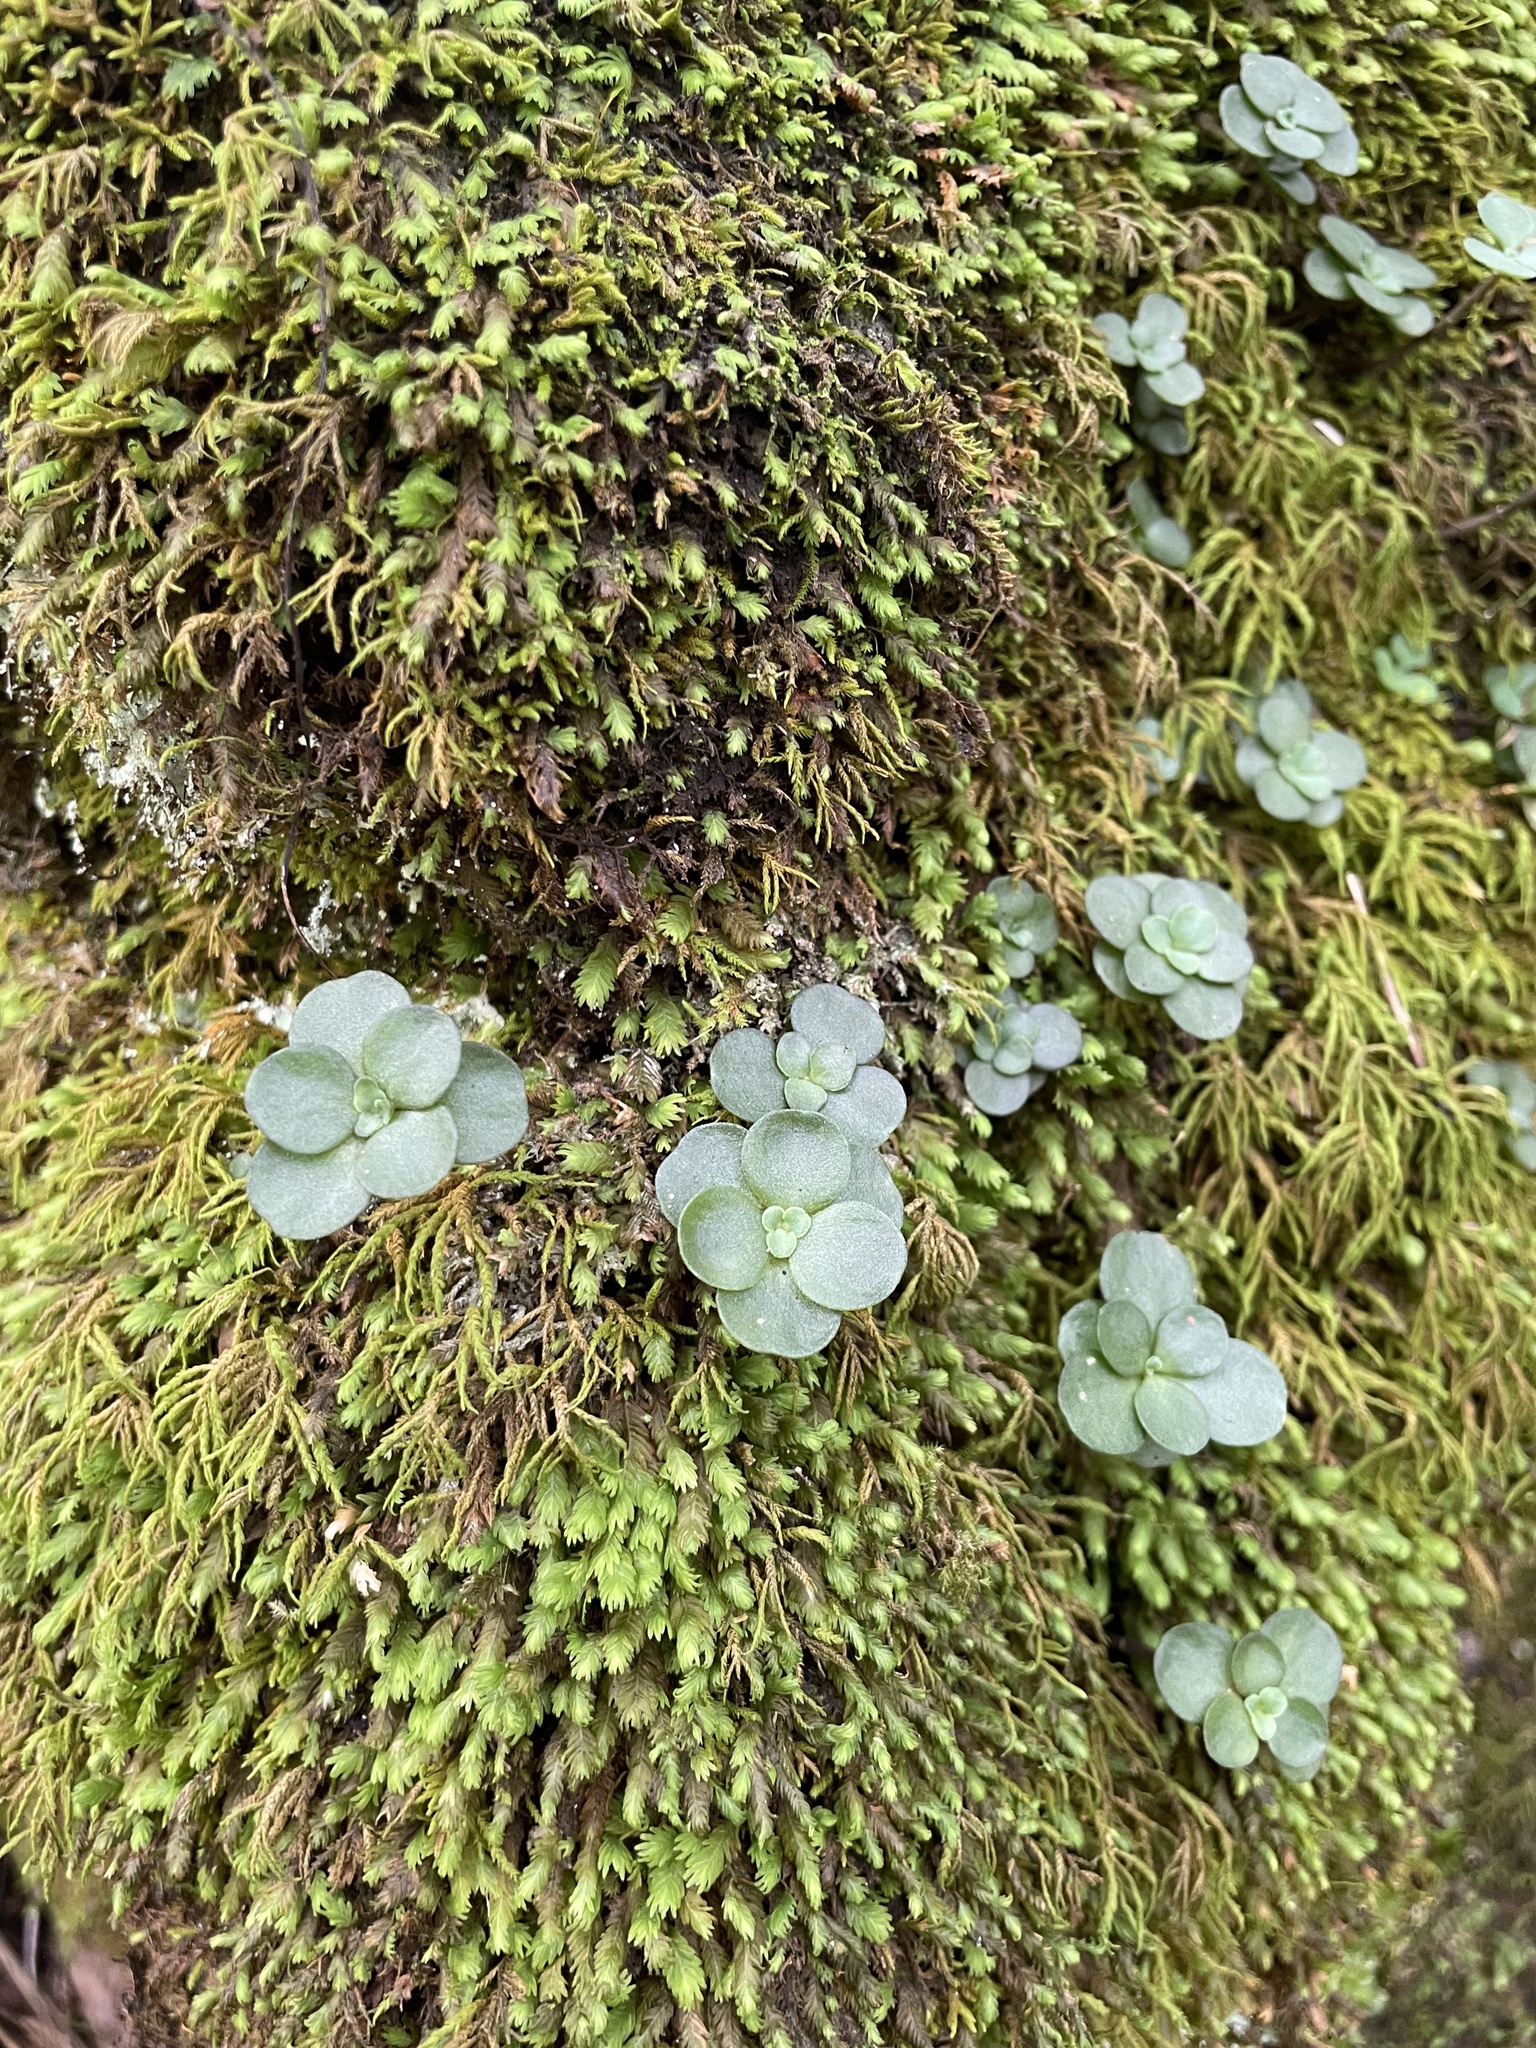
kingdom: Plantae
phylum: Tracheophyta
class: Magnoliopsida
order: Saxifragales
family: Crassulaceae
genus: Sedum
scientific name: Sedum ternatum
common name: Wild stonecrop
